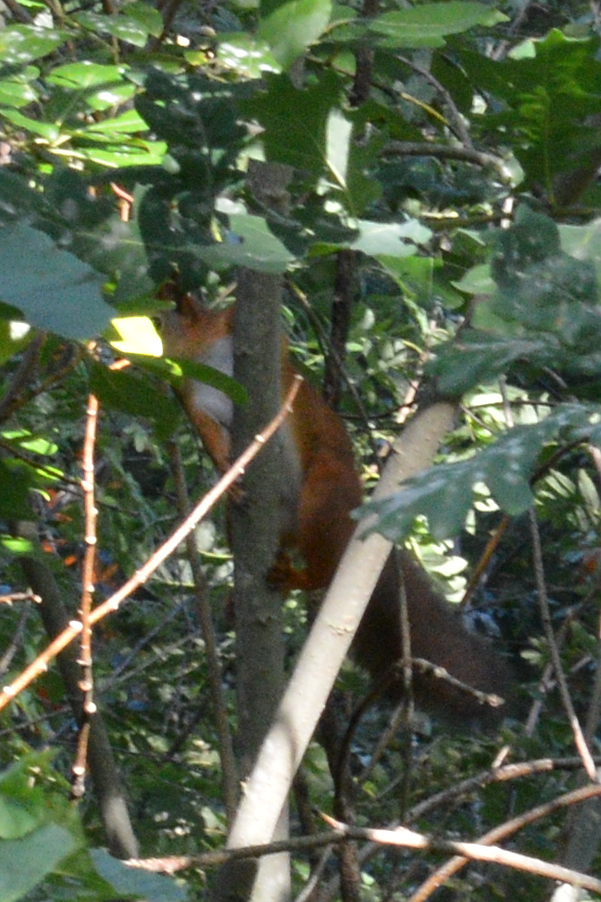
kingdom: Animalia
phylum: Chordata
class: Mammalia
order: Rodentia
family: Sciuridae
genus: Sciurus
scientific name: Sciurus vulgaris
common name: Eurasian red squirrel
